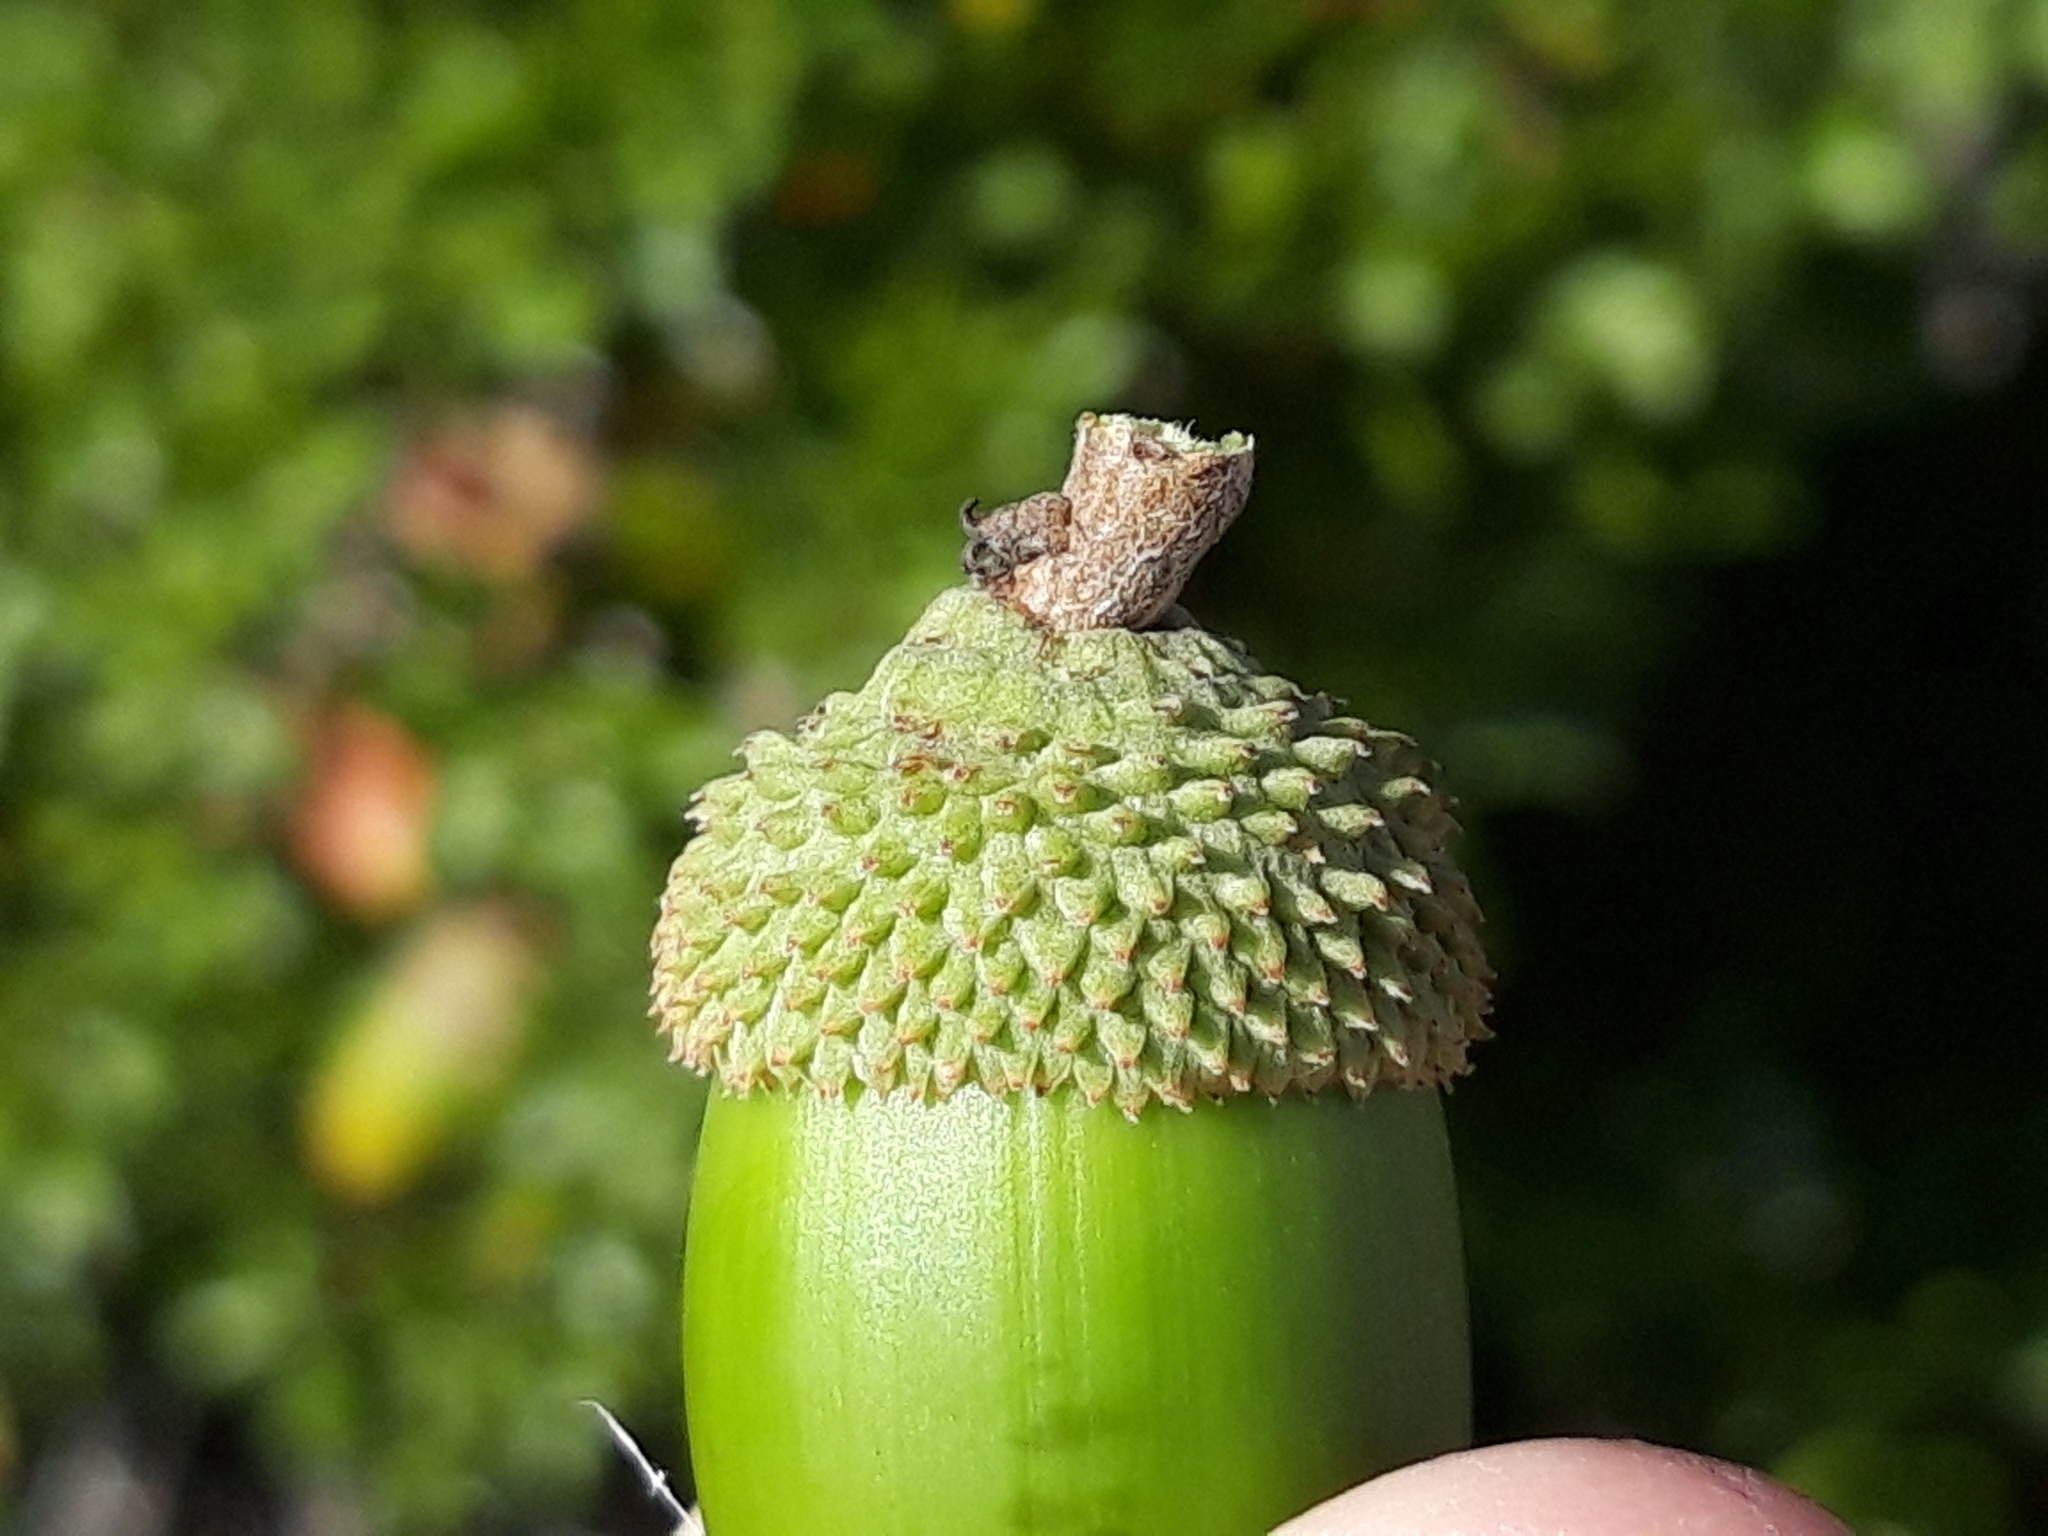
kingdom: Plantae
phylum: Tracheophyta
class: Magnoliopsida
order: Fagales
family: Fagaceae
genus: Quercus
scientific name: Quercus coccifera
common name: Kermes oak
